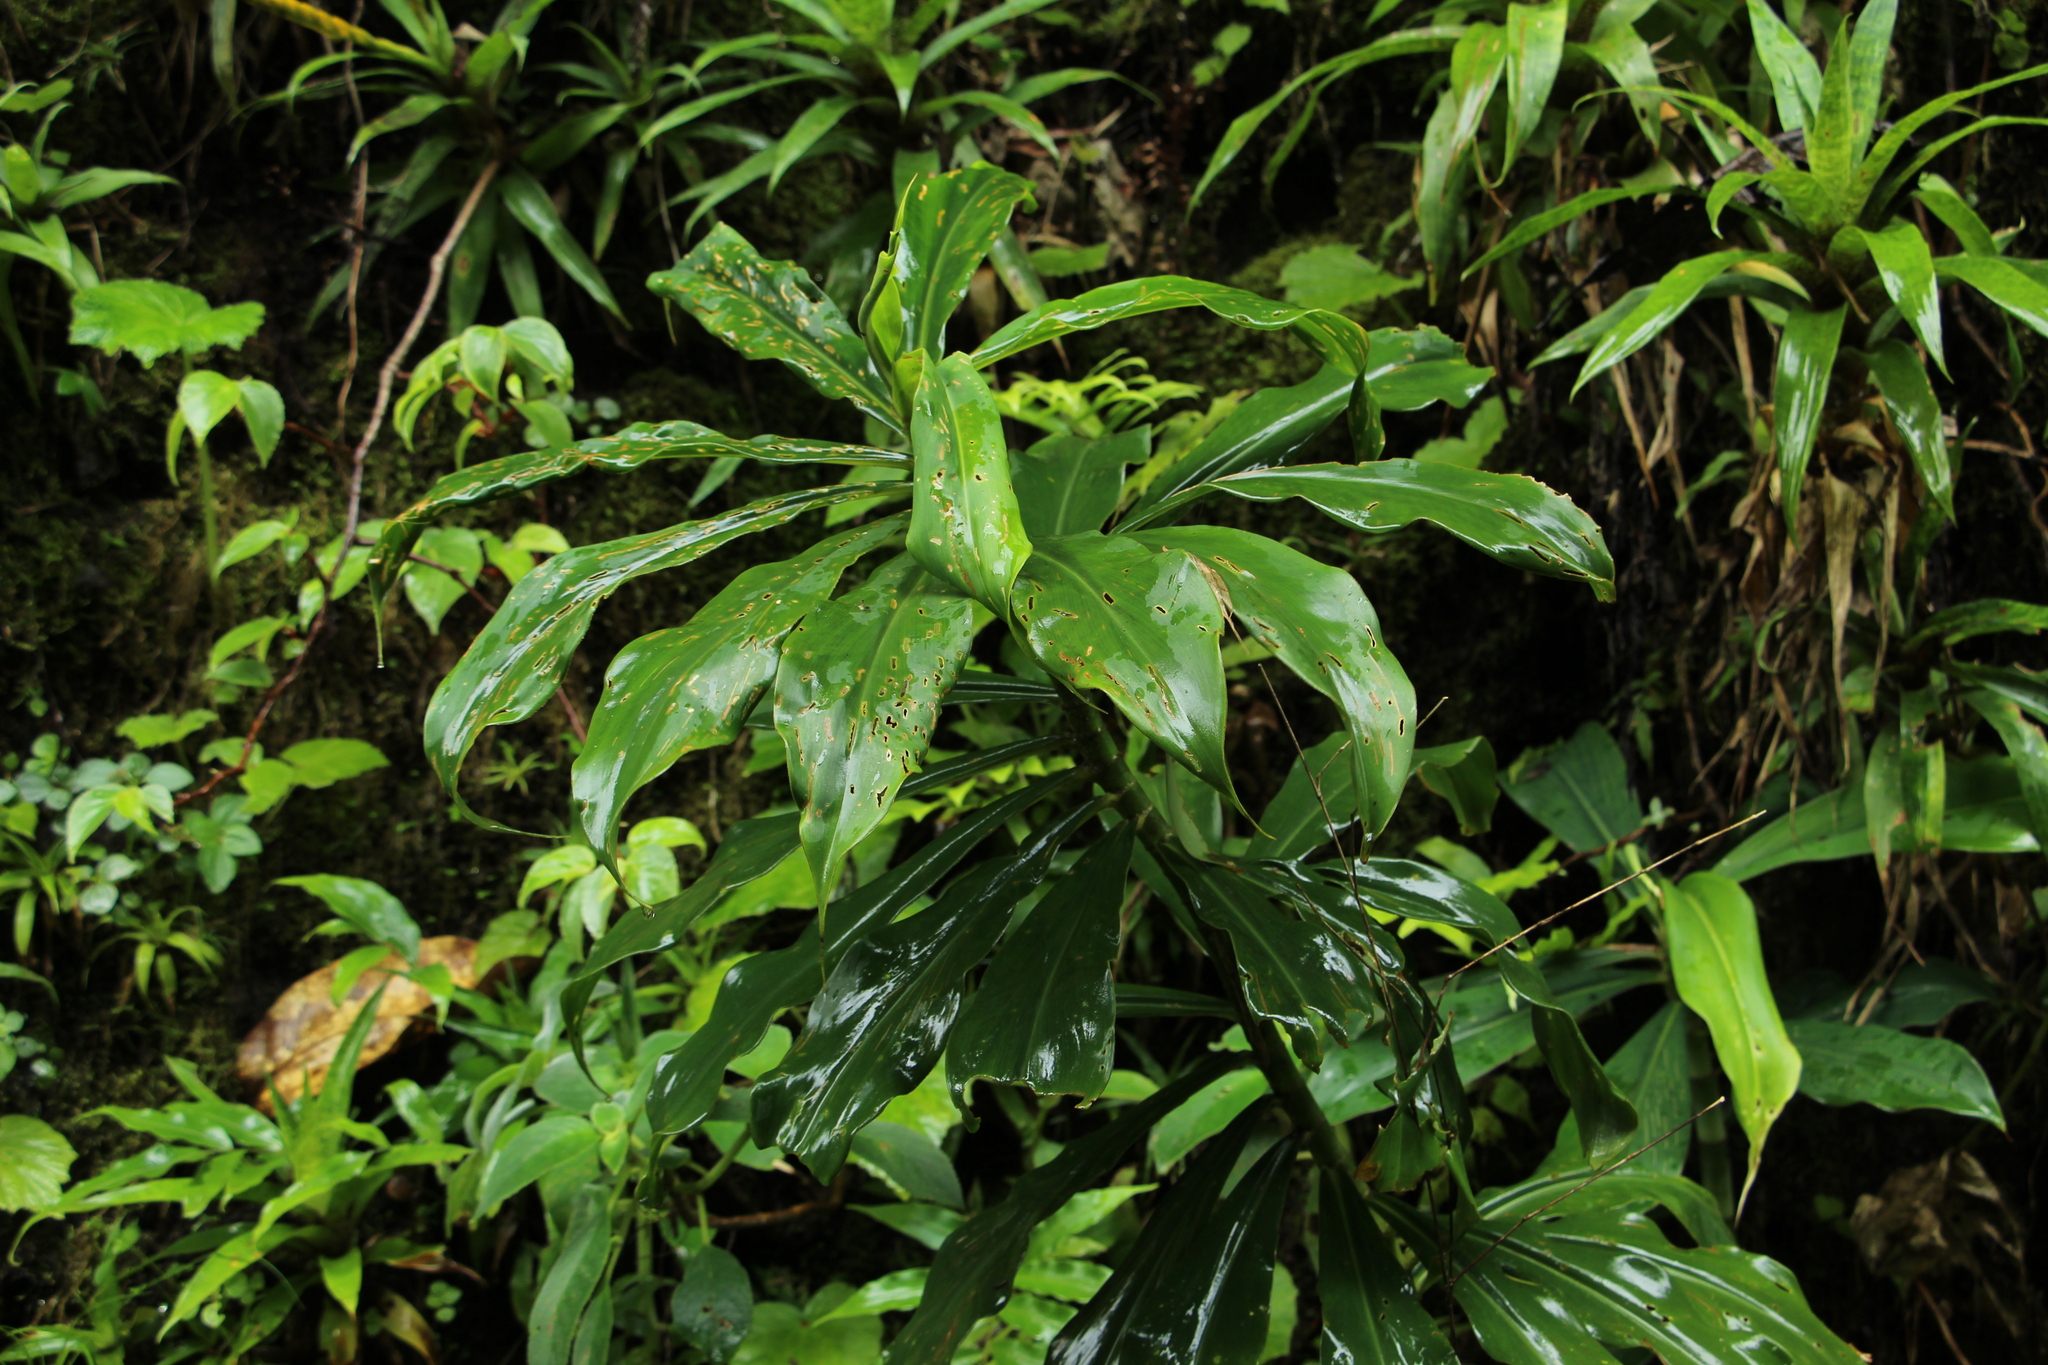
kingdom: Plantae
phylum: Tracheophyta
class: Liliopsida
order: Zingiberales
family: Costaceae
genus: Dimerocostus
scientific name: Dimerocostus strobilaceus
